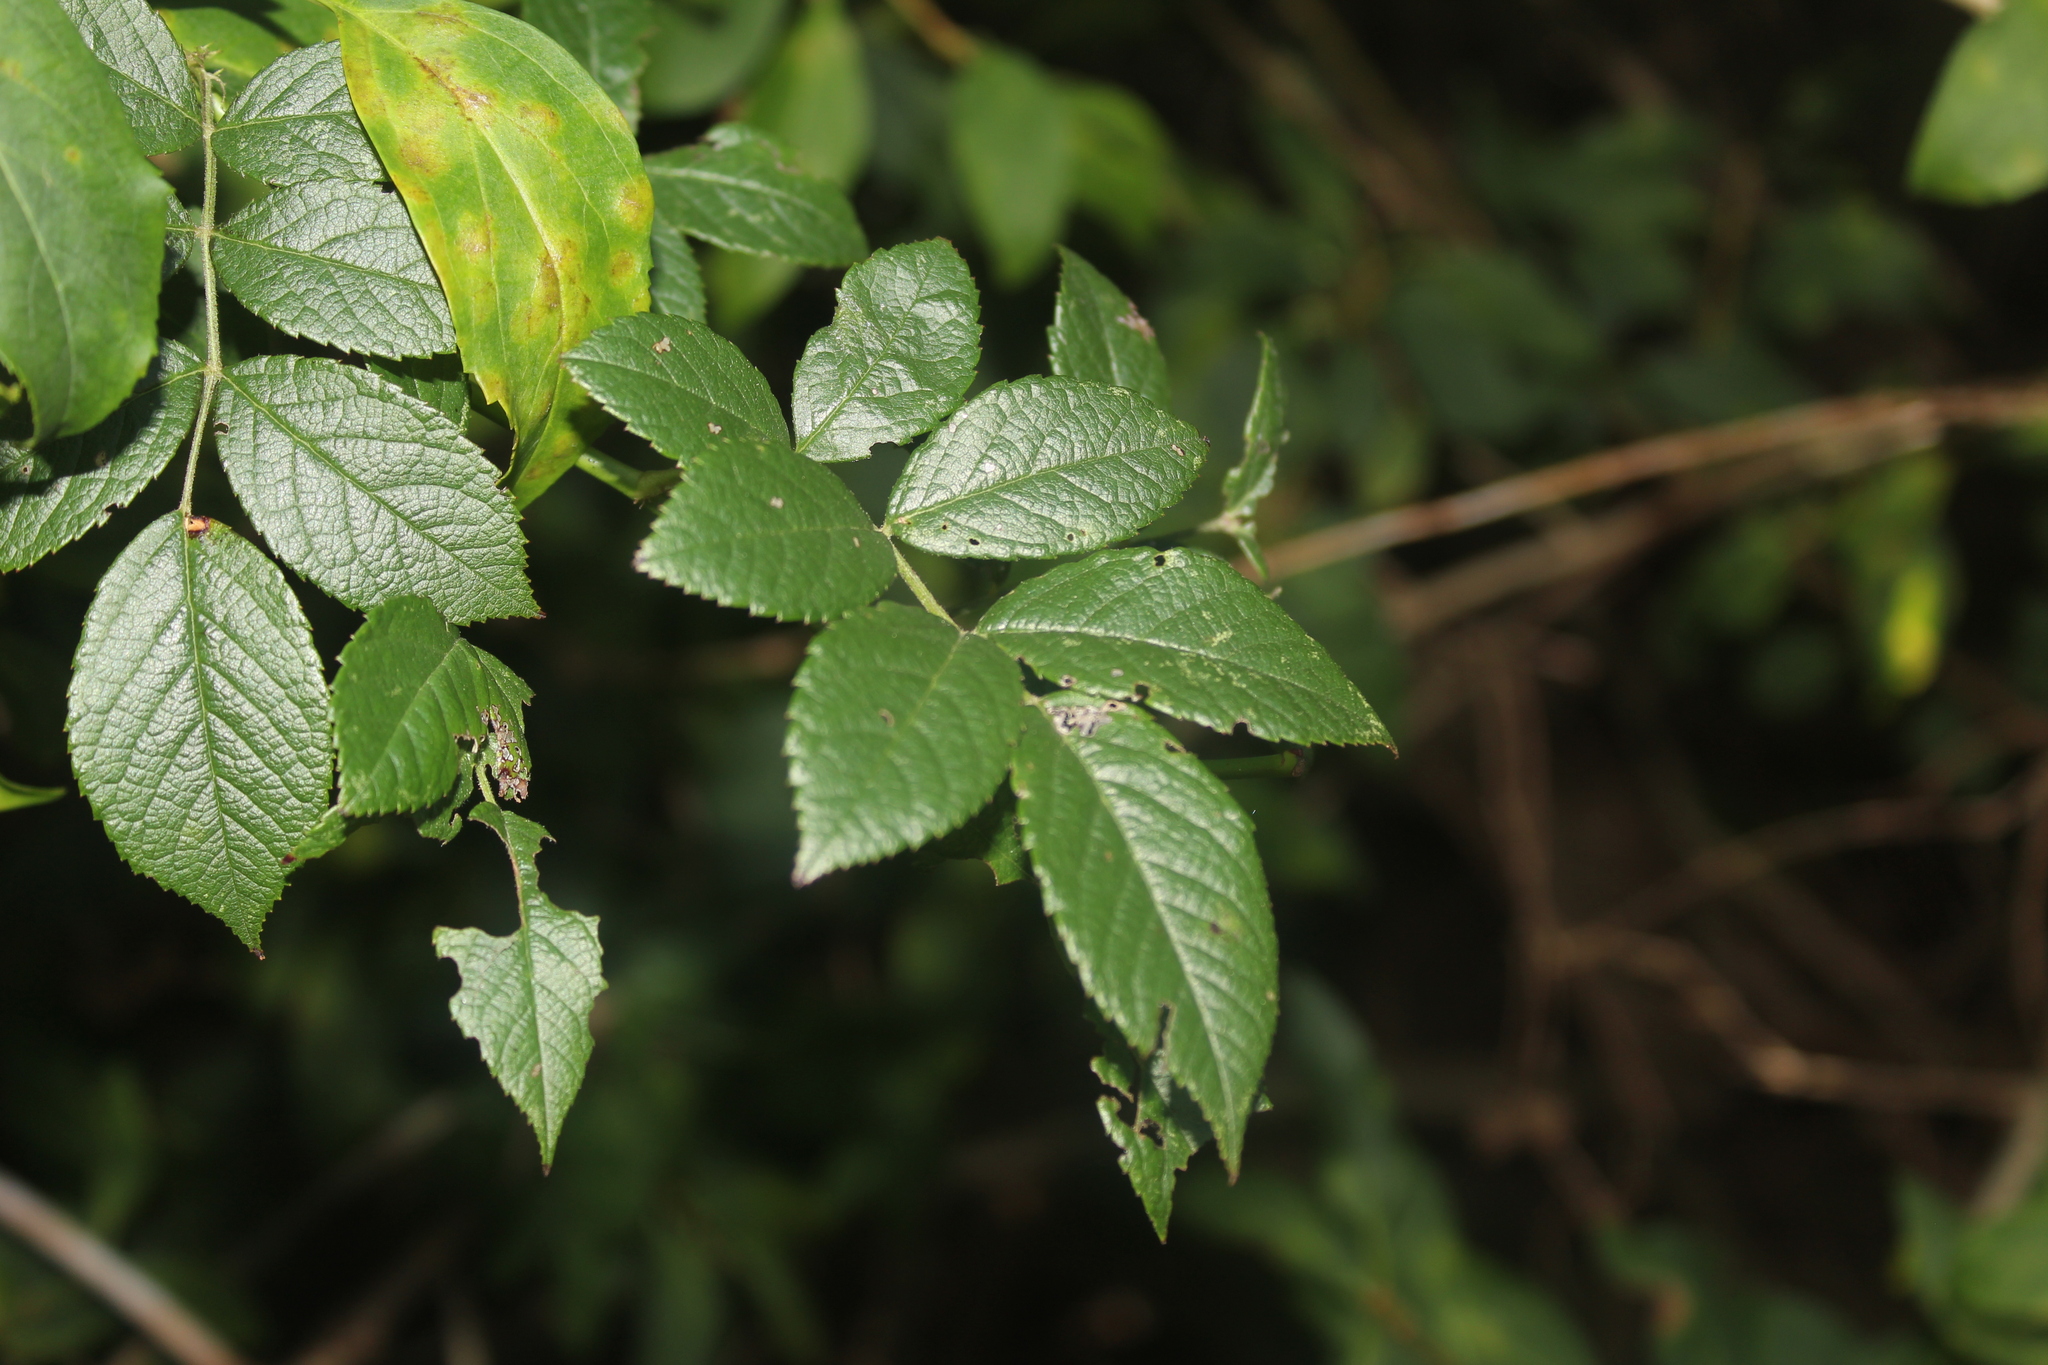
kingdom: Plantae
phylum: Tracheophyta
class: Magnoliopsida
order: Rosales
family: Rosaceae
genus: Rosa
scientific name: Rosa multiflora
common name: Multiflora rose
